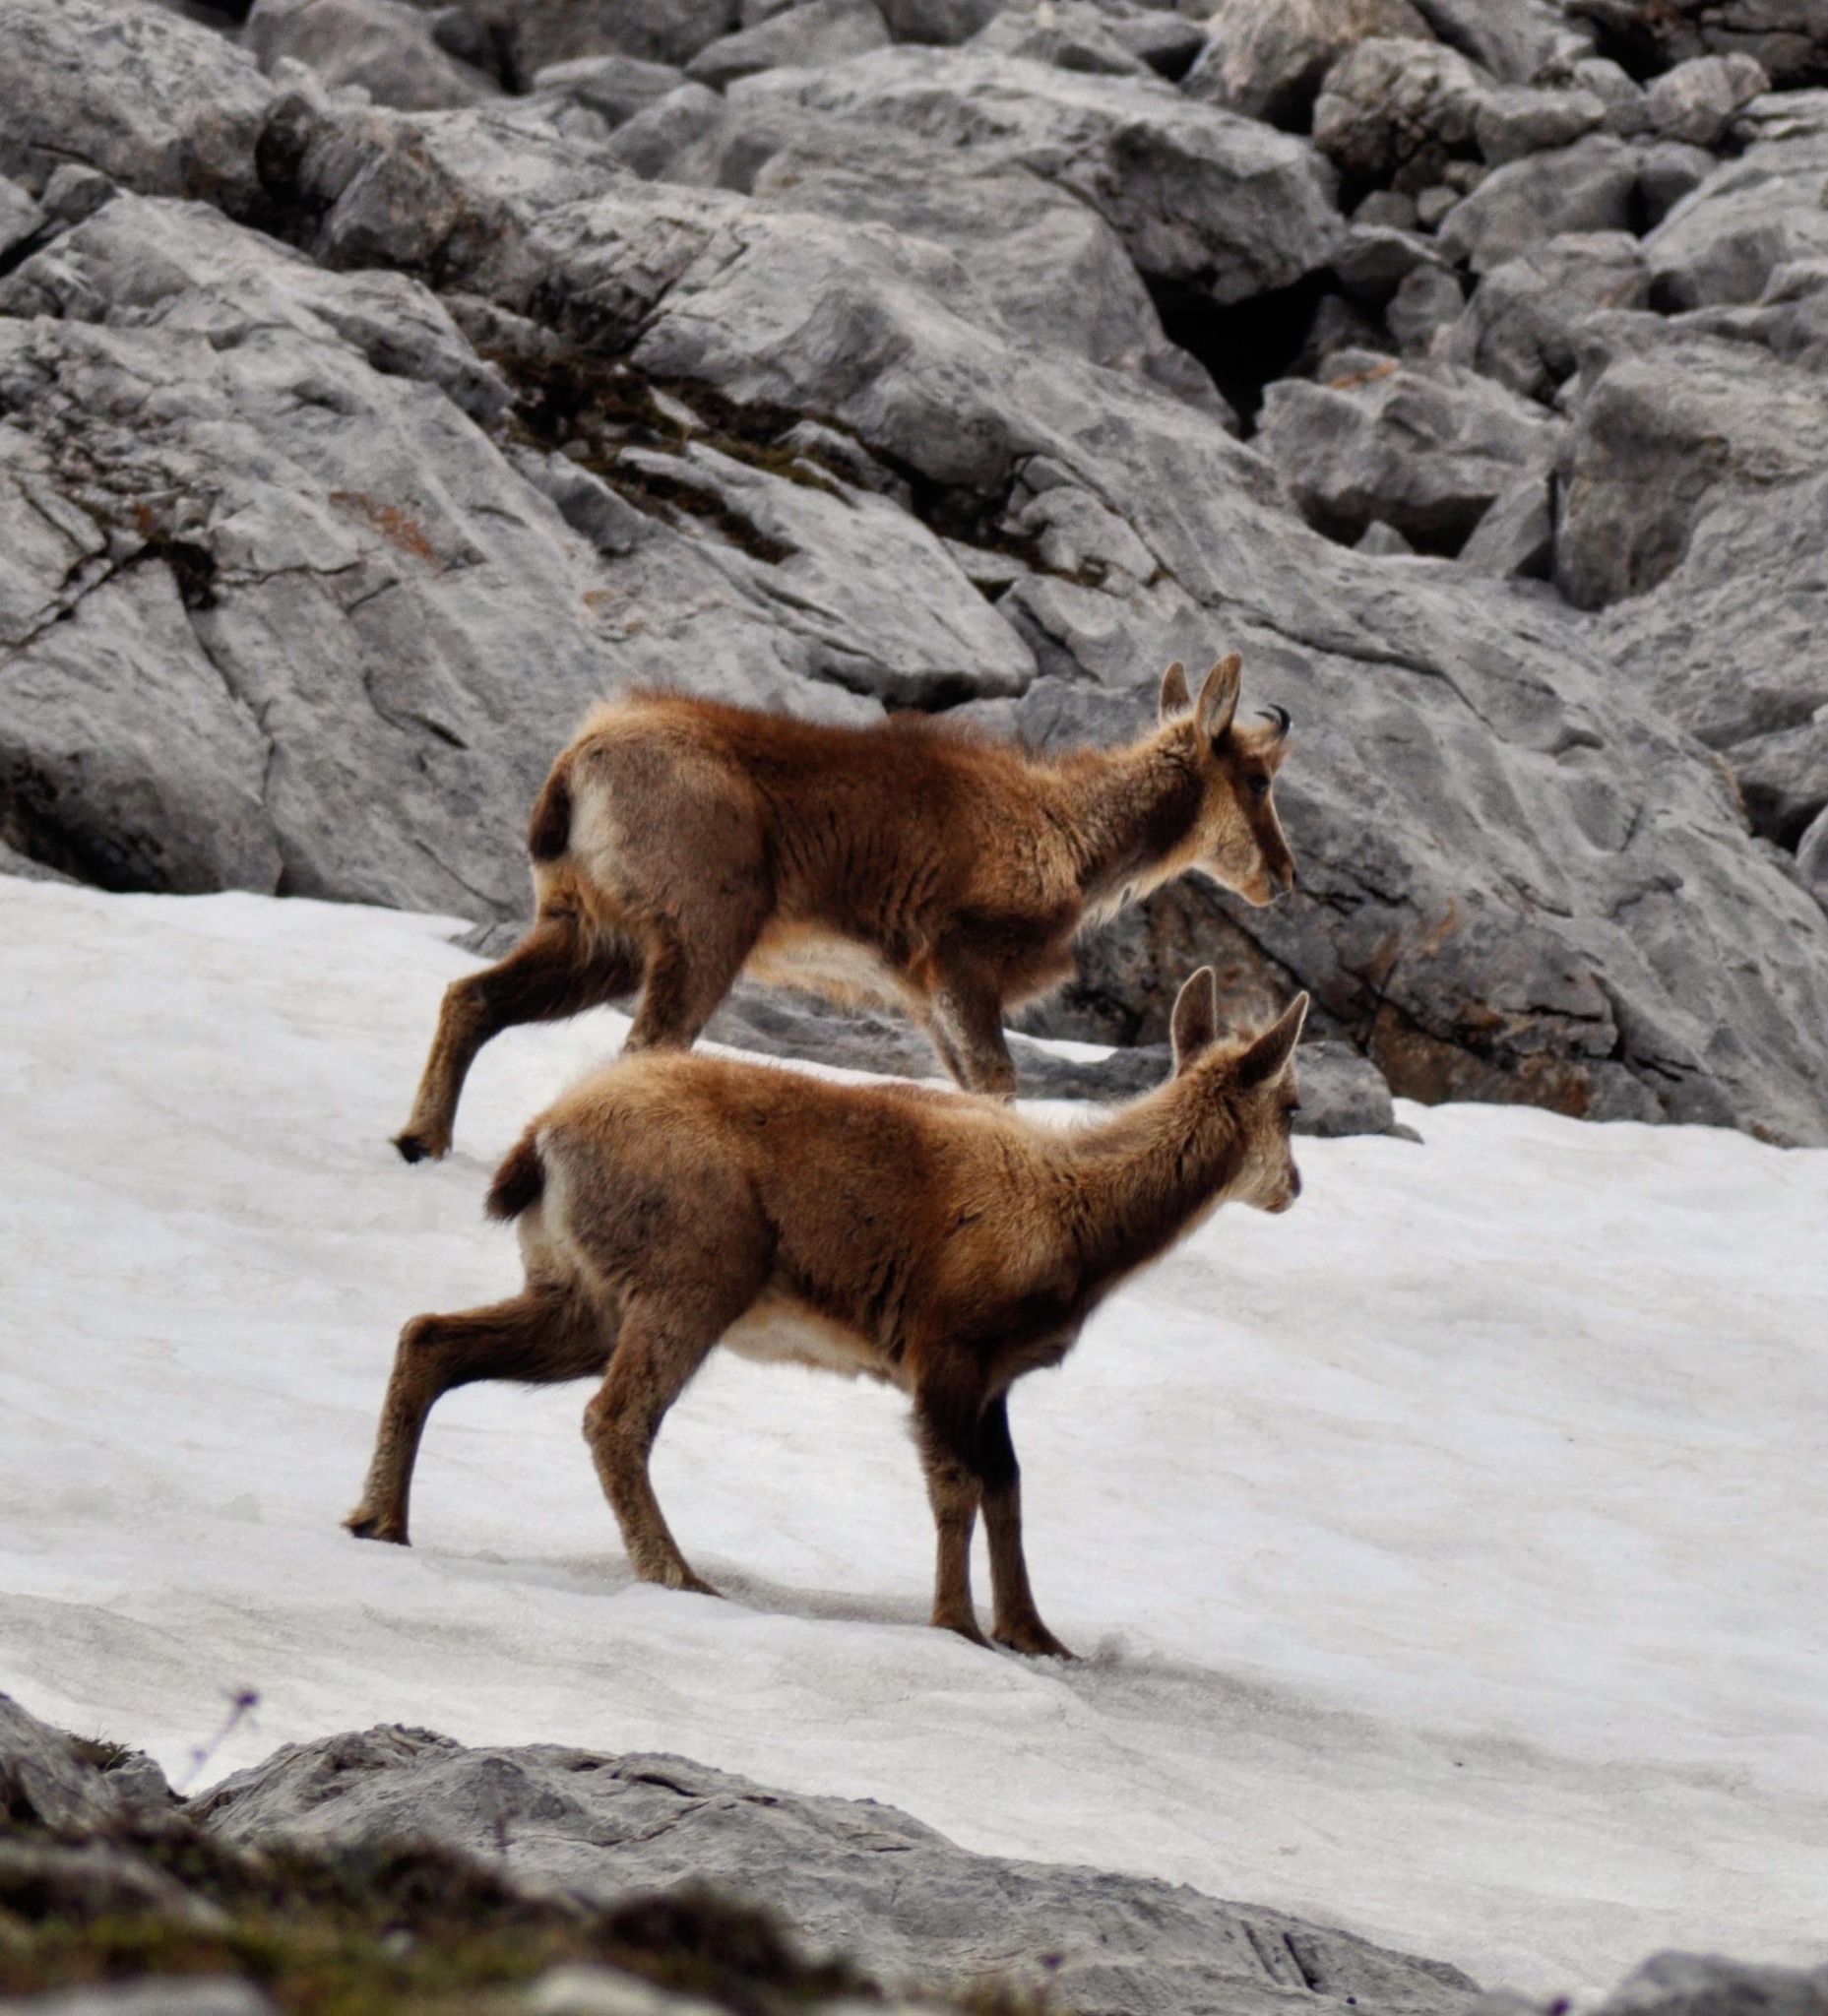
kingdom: Animalia
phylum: Chordata
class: Mammalia
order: Artiodactyla
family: Bovidae
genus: Rupicapra
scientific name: Rupicapra pyrenaica
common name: Pyrenean chamois
